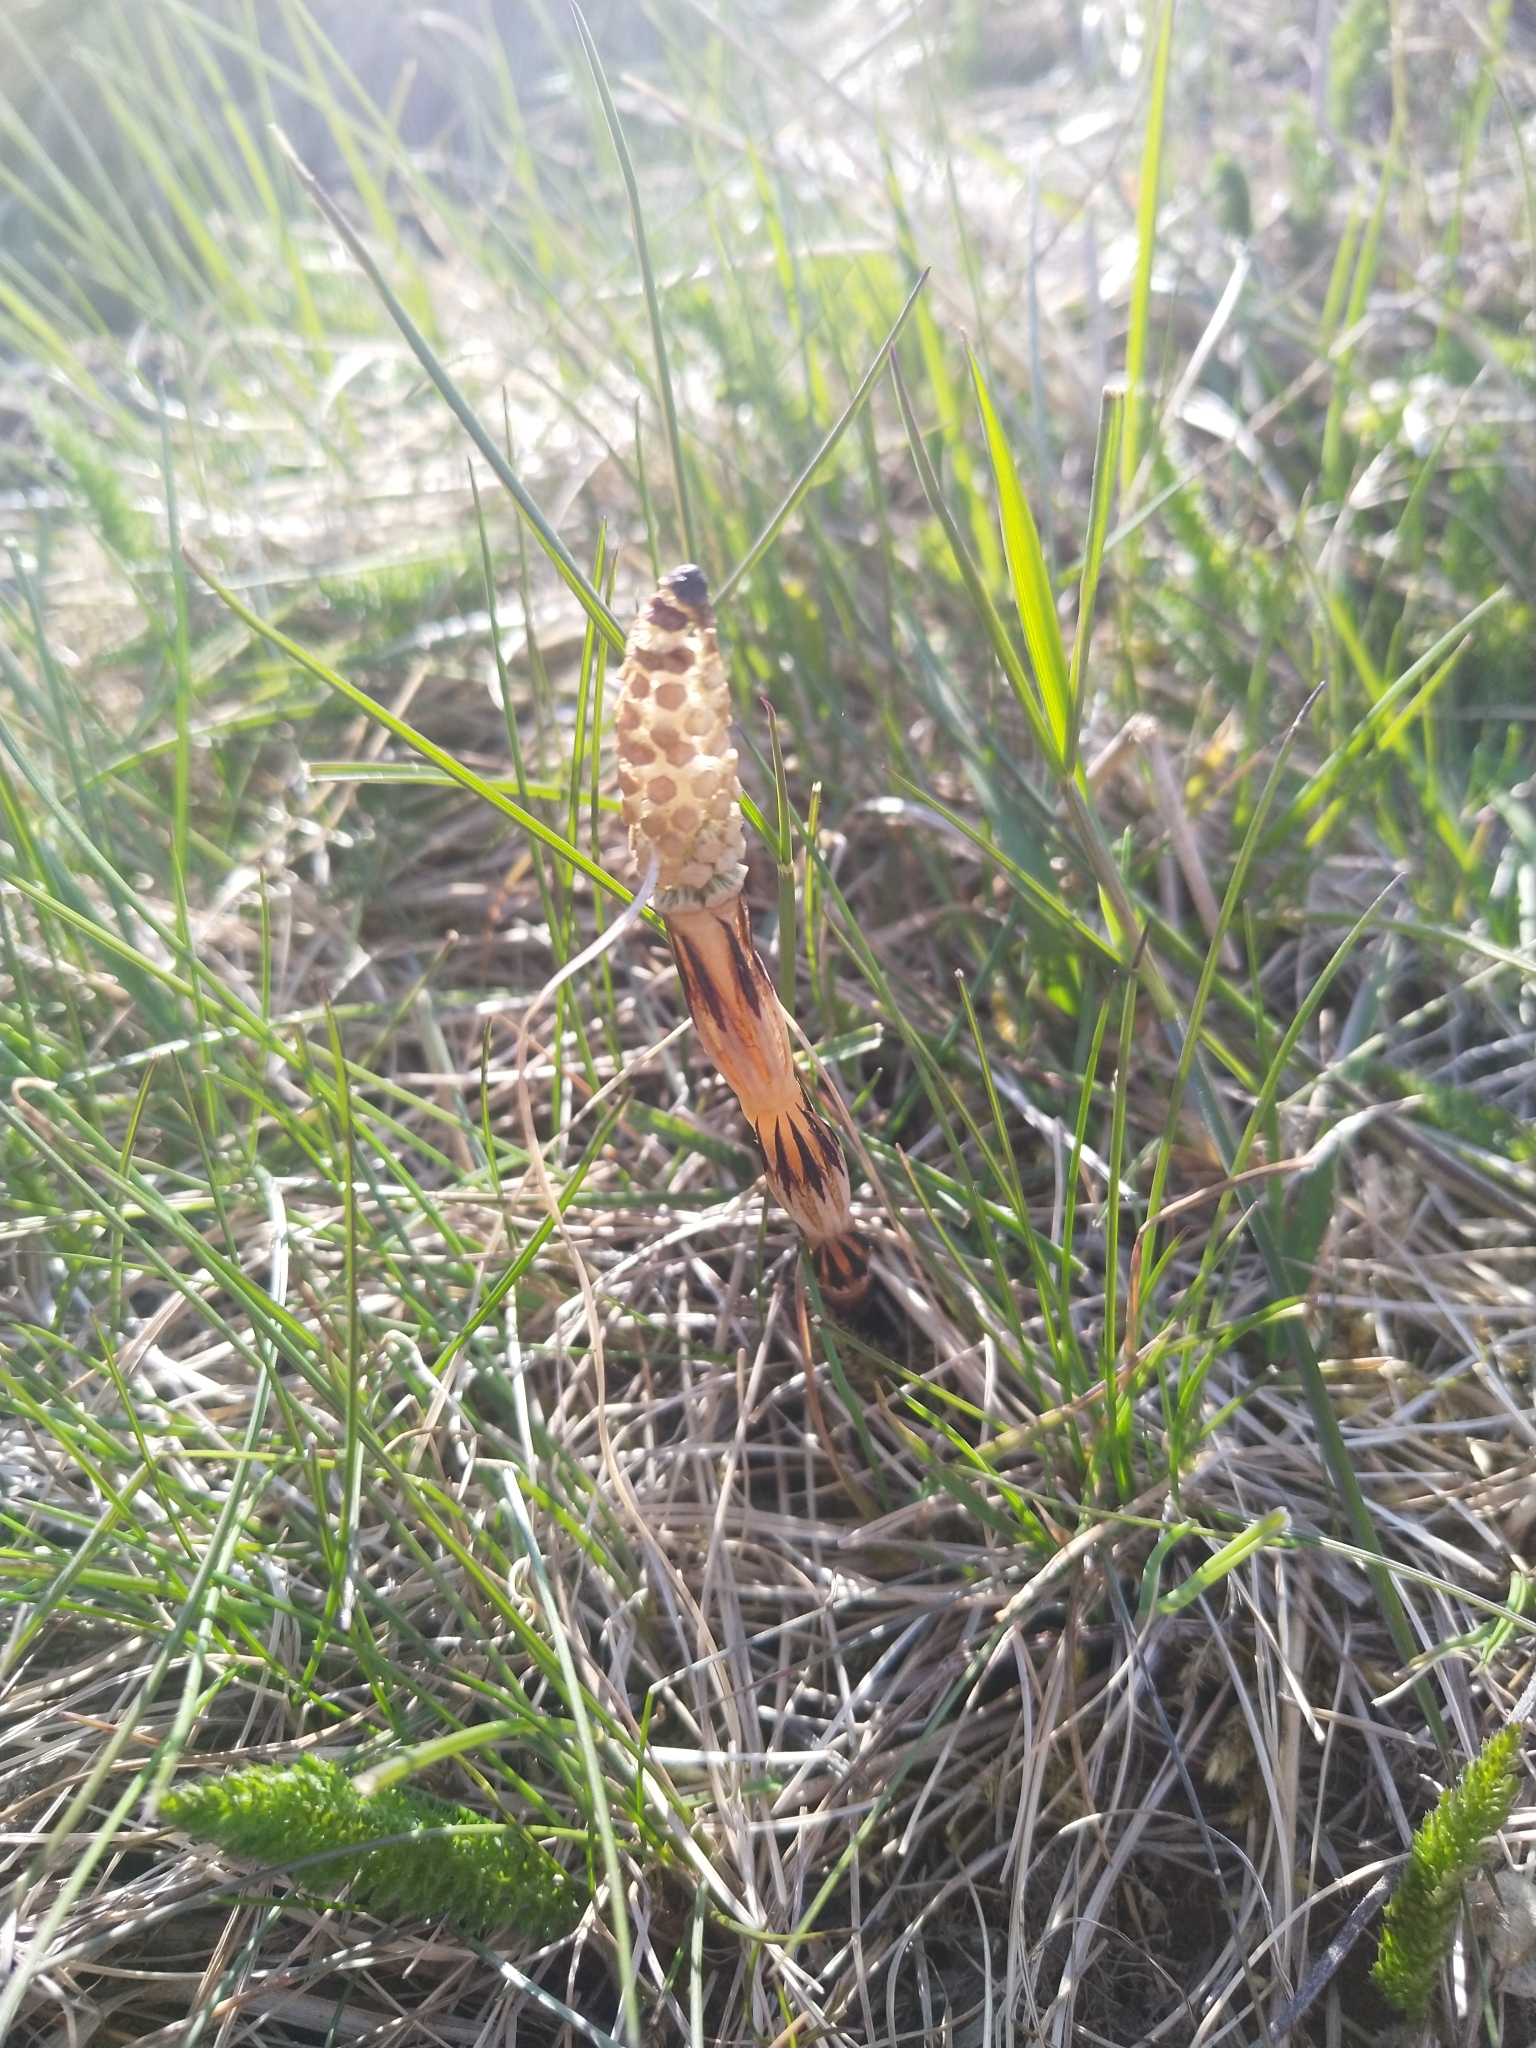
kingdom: Plantae
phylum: Tracheophyta
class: Polypodiopsida
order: Equisetales
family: Equisetaceae
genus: Equisetum
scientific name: Equisetum arvense
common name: Field horsetail
